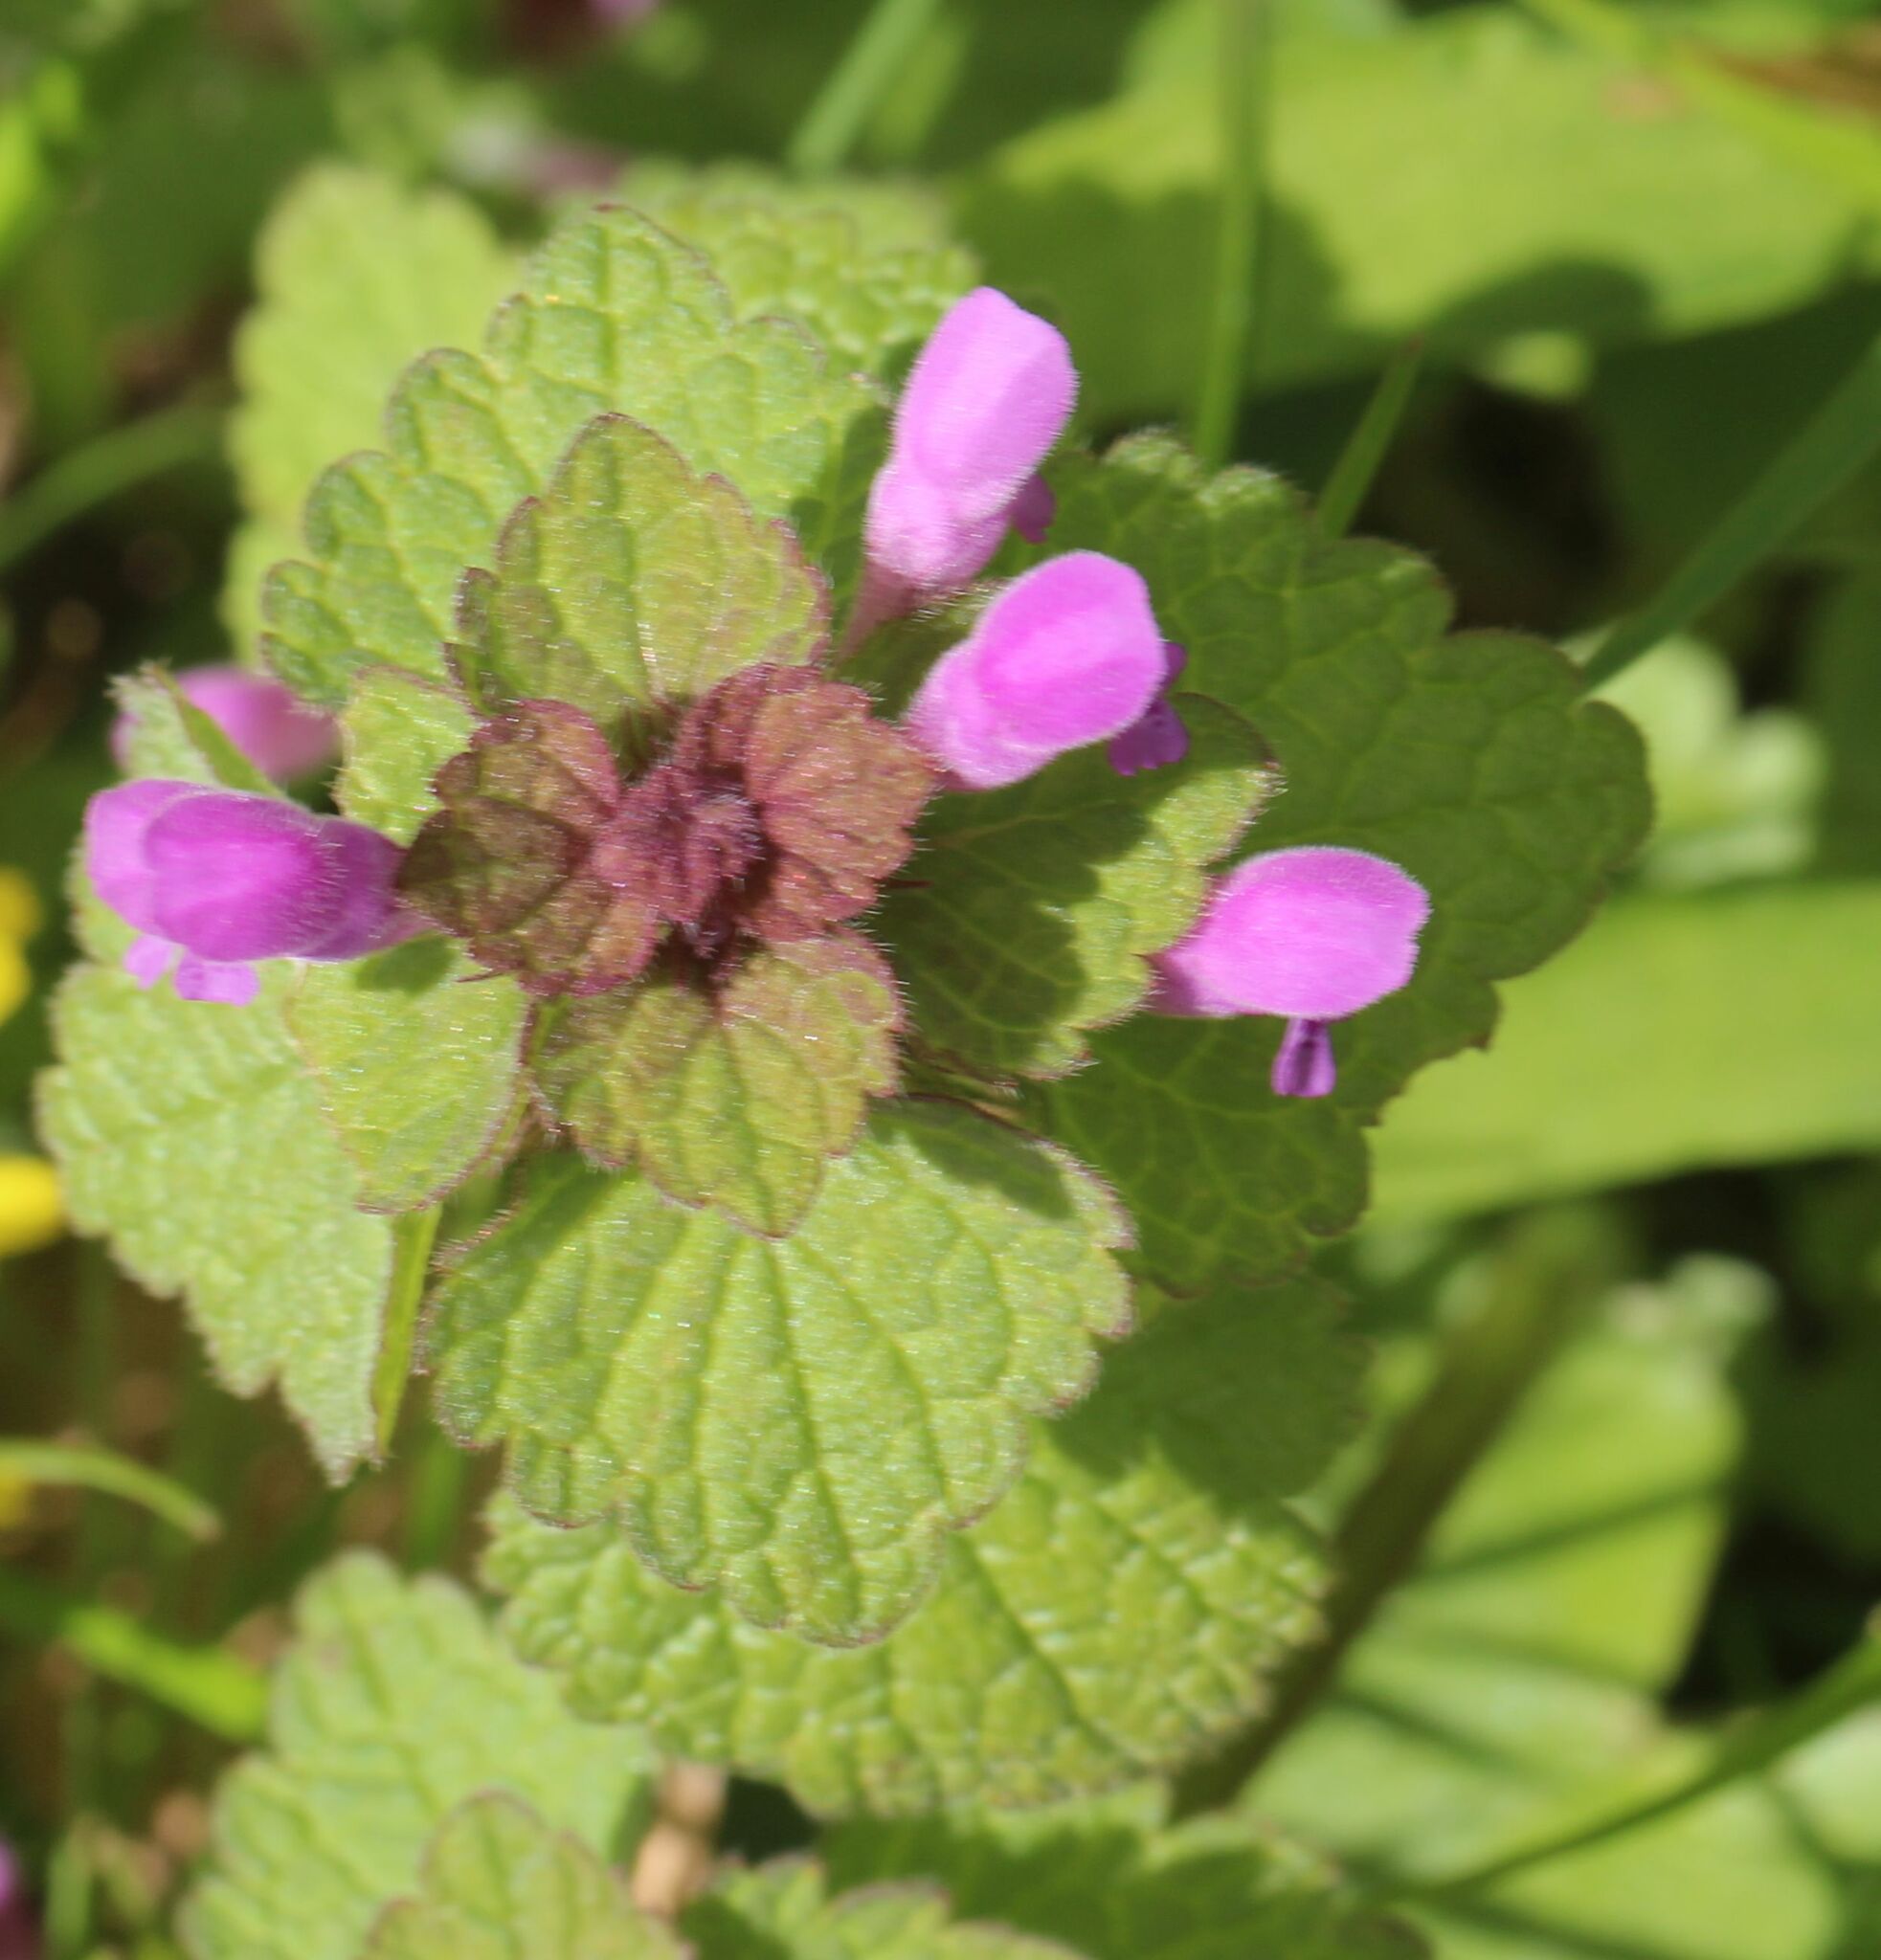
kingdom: Plantae
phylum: Tracheophyta
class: Magnoliopsida
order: Lamiales
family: Lamiaceae
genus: Lamium
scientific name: Lamium purpureum
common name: Red dead-nettle
